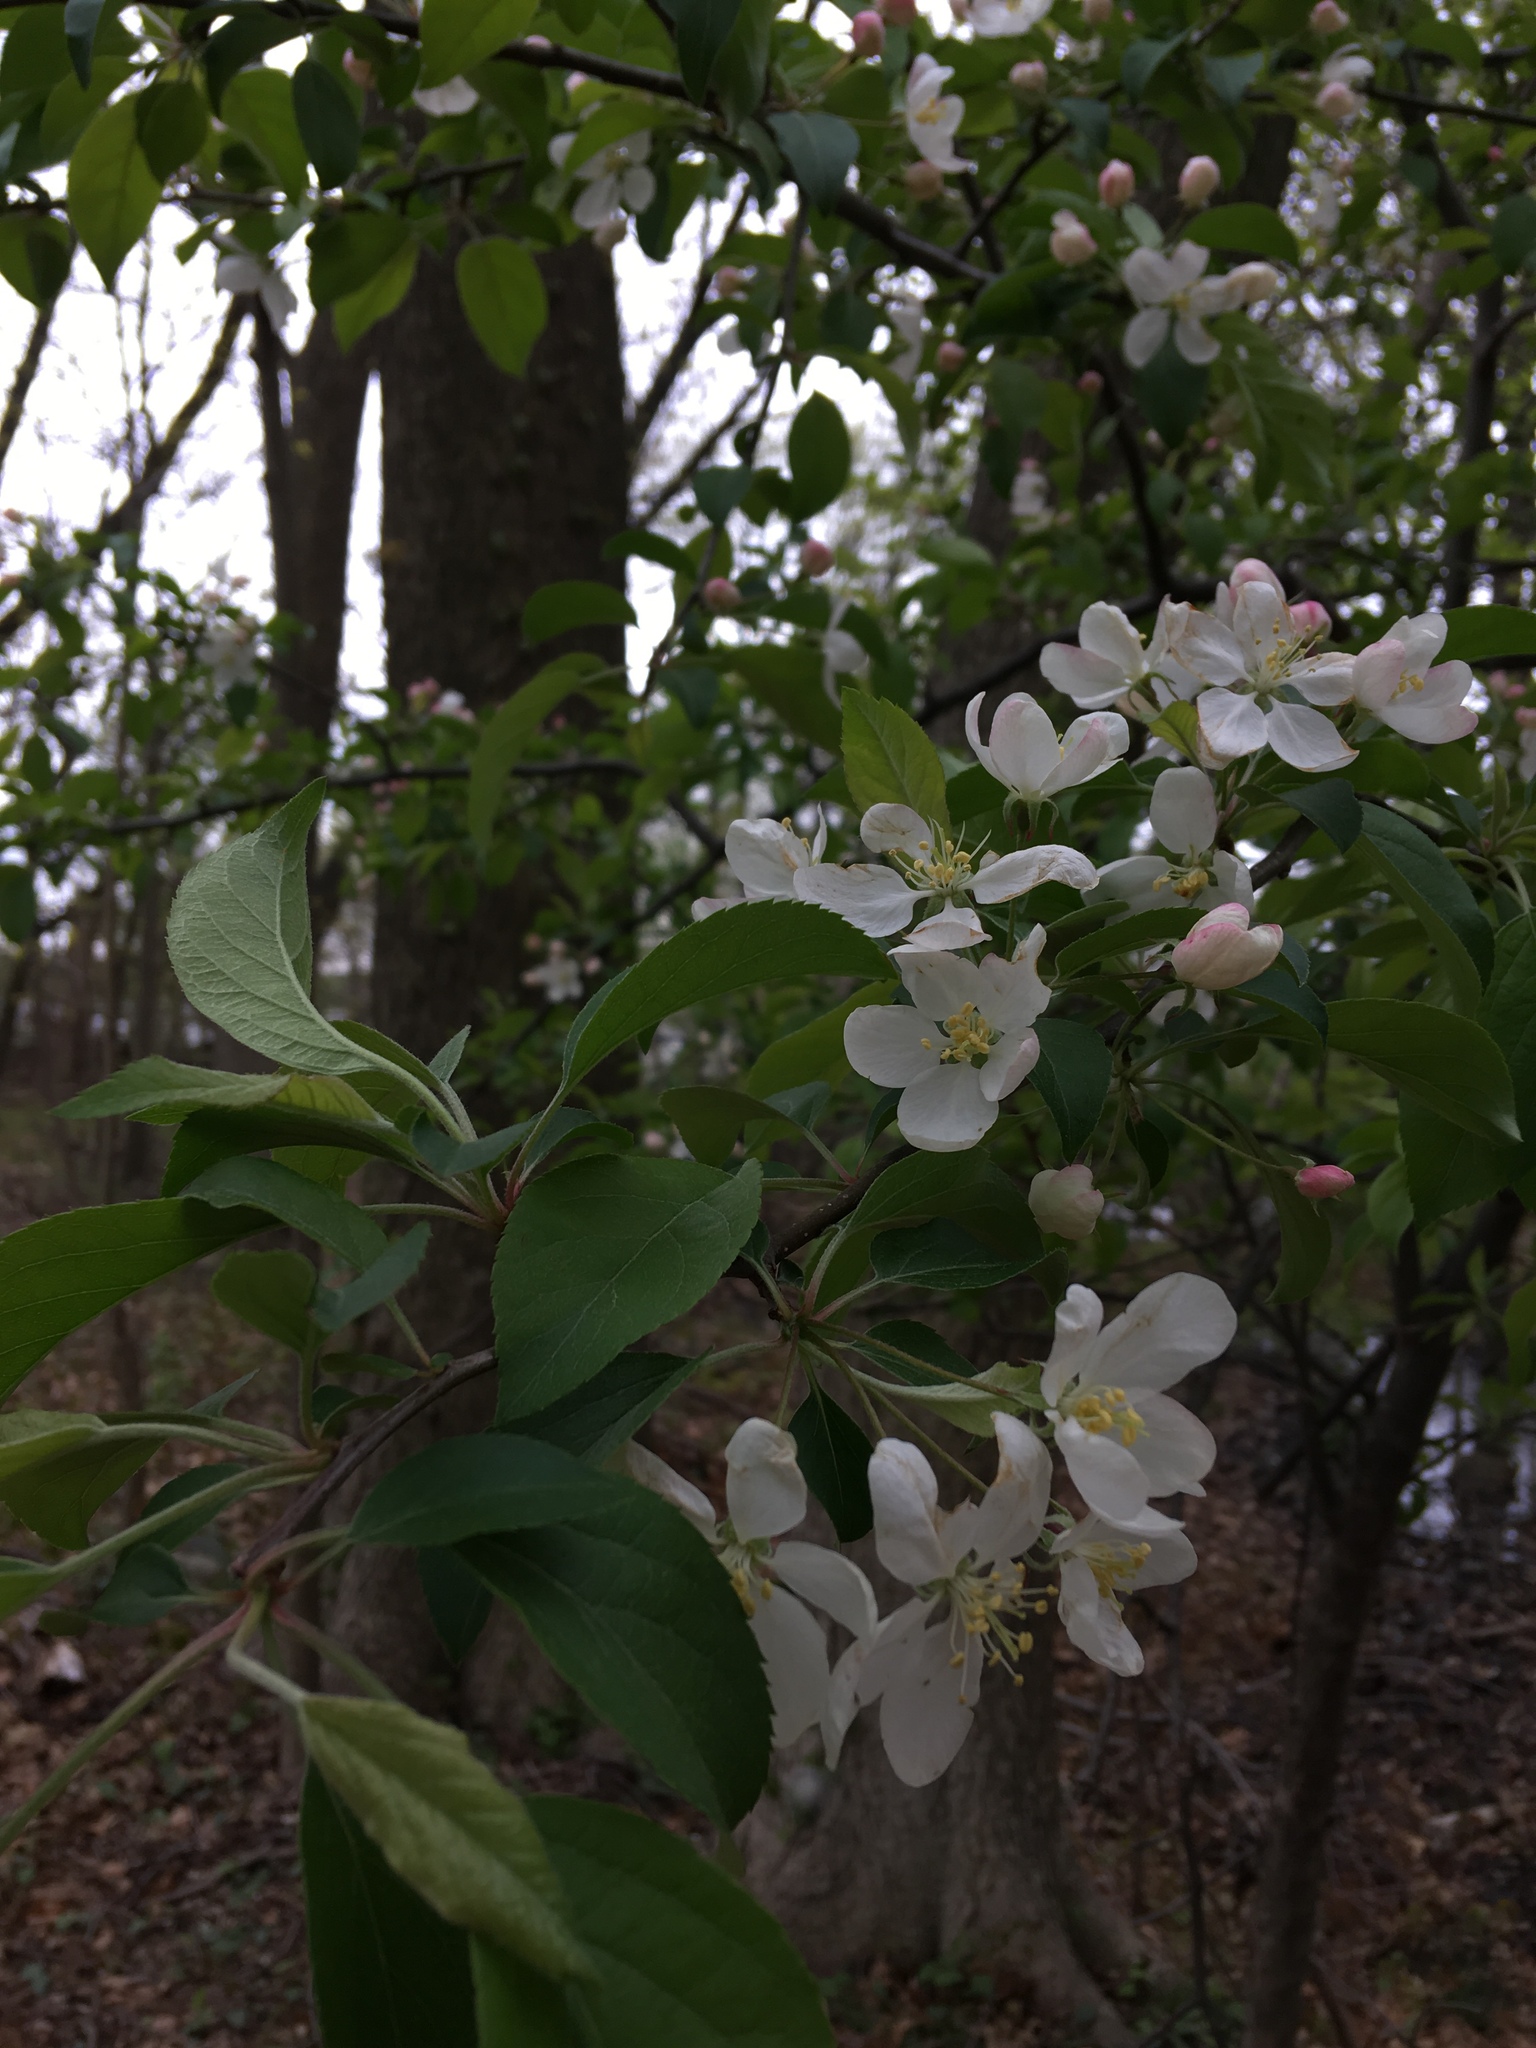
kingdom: Plantae
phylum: Tracheophyta
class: Magnoliopsida
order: Rosales
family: Rosaceae
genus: Malus
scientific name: Malus domestica
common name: Apple
